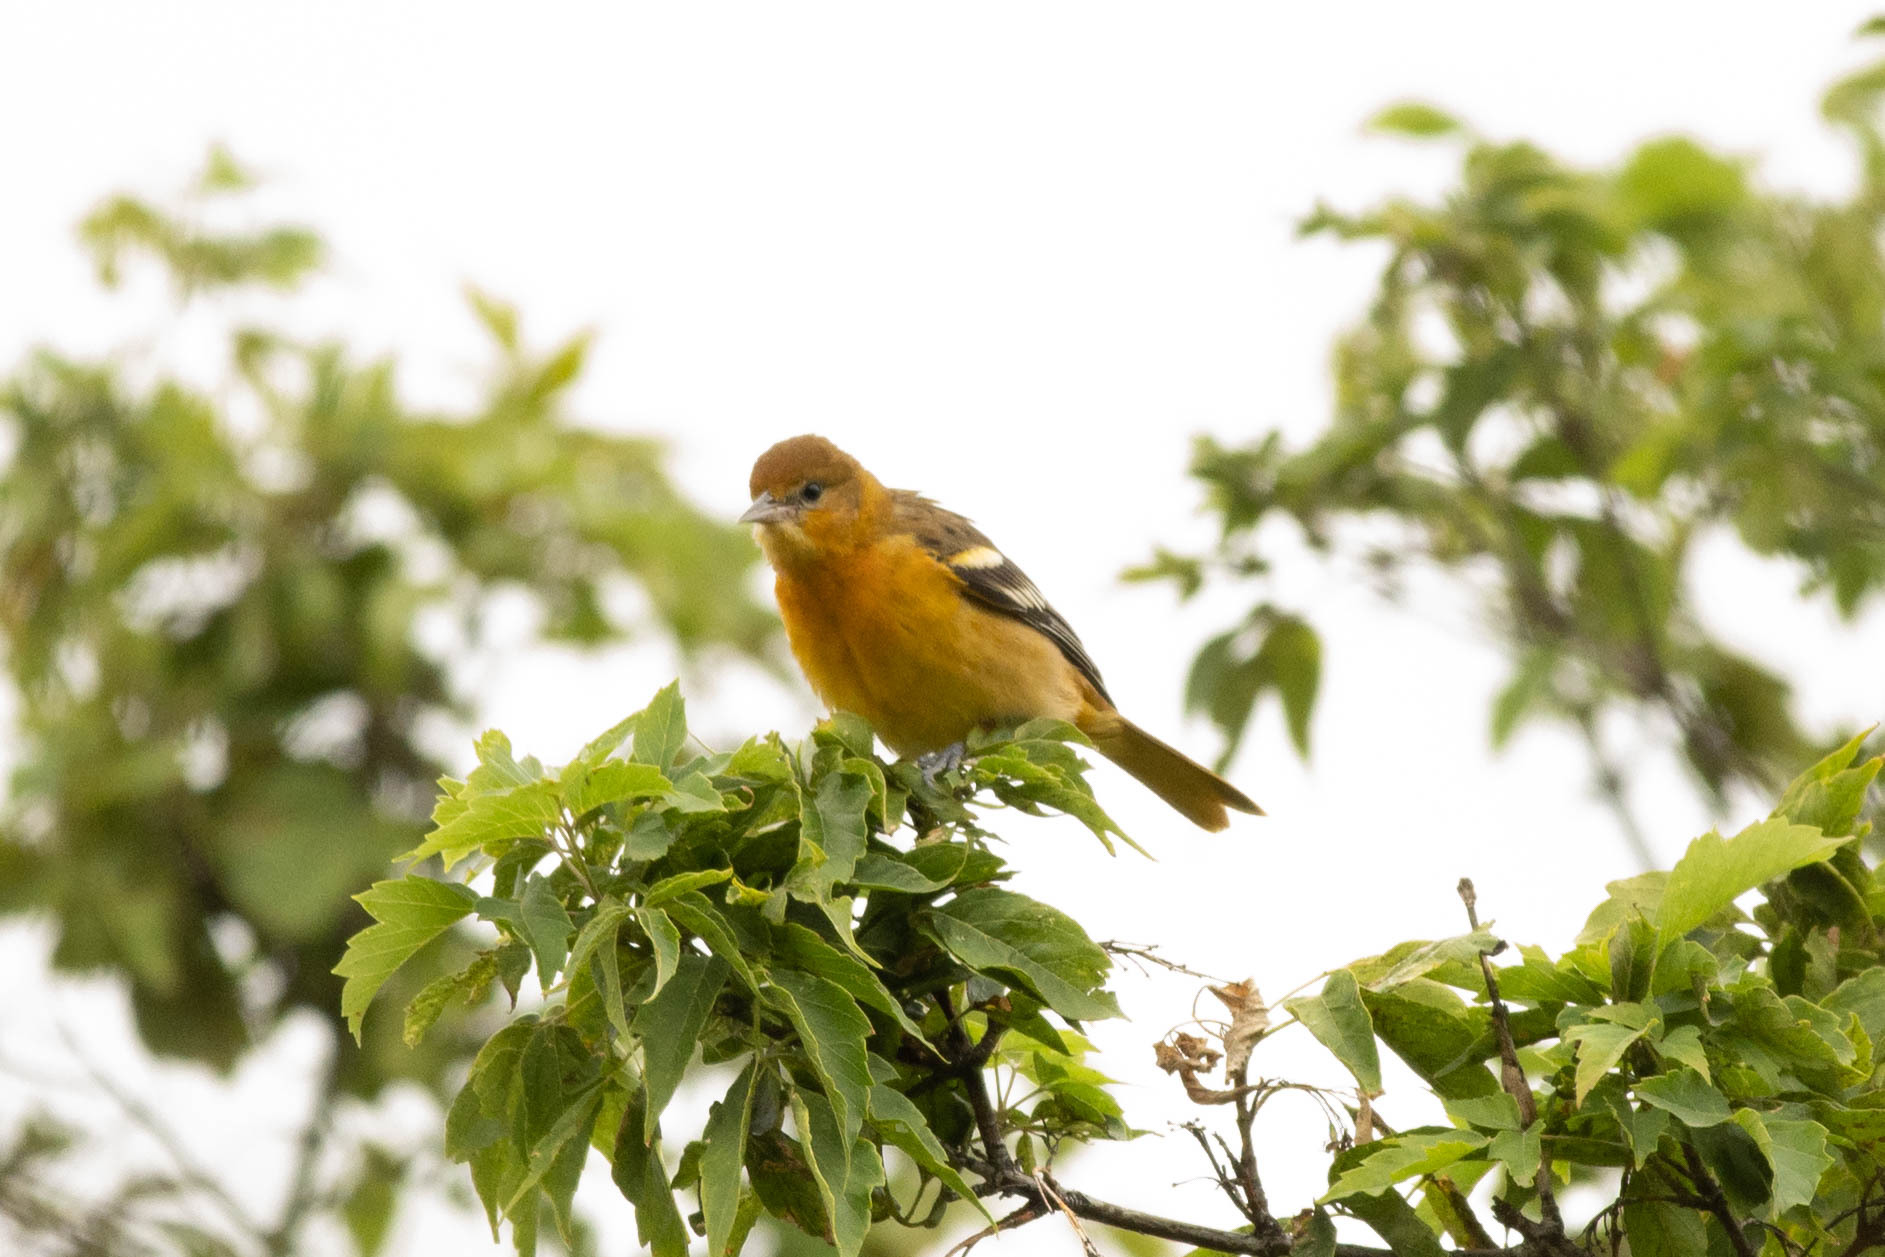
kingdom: Animalia
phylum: Chordata
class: Aves
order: Passeriformes
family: Icteridae
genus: Icterus
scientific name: Icterus galbula
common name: Baltimore oriole
